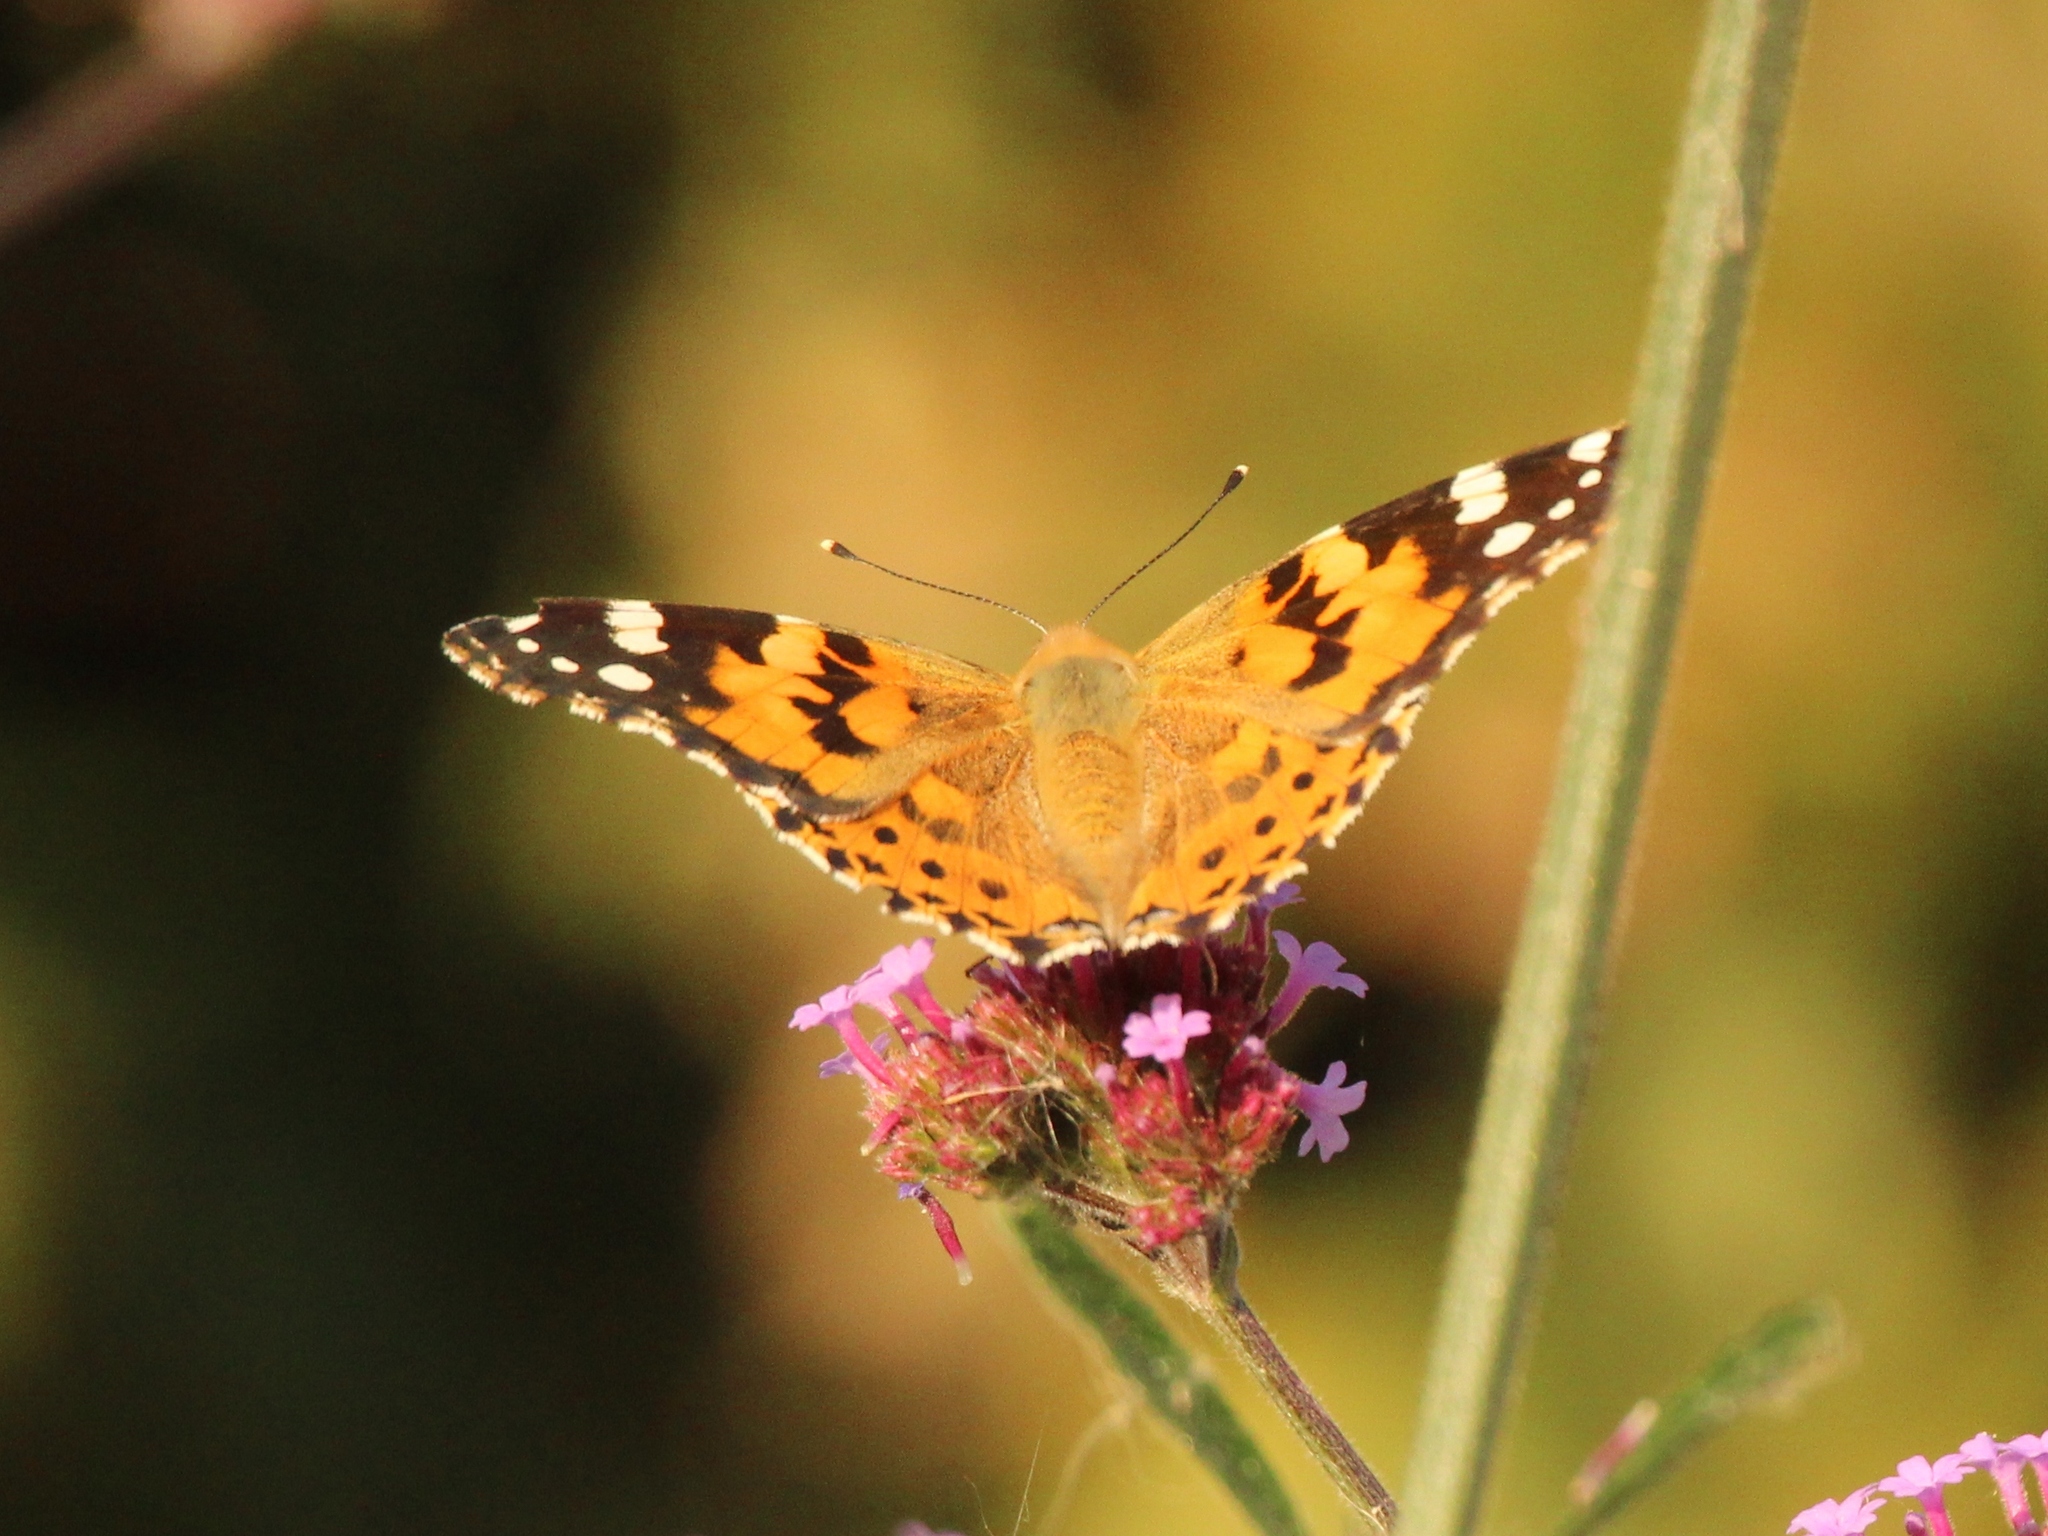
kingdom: Animalia
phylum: Arthropoda
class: Insecta
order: Lepidoptera
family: Nymphalidae
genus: Vanessa
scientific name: Vanessa cardui
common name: Painted lady
